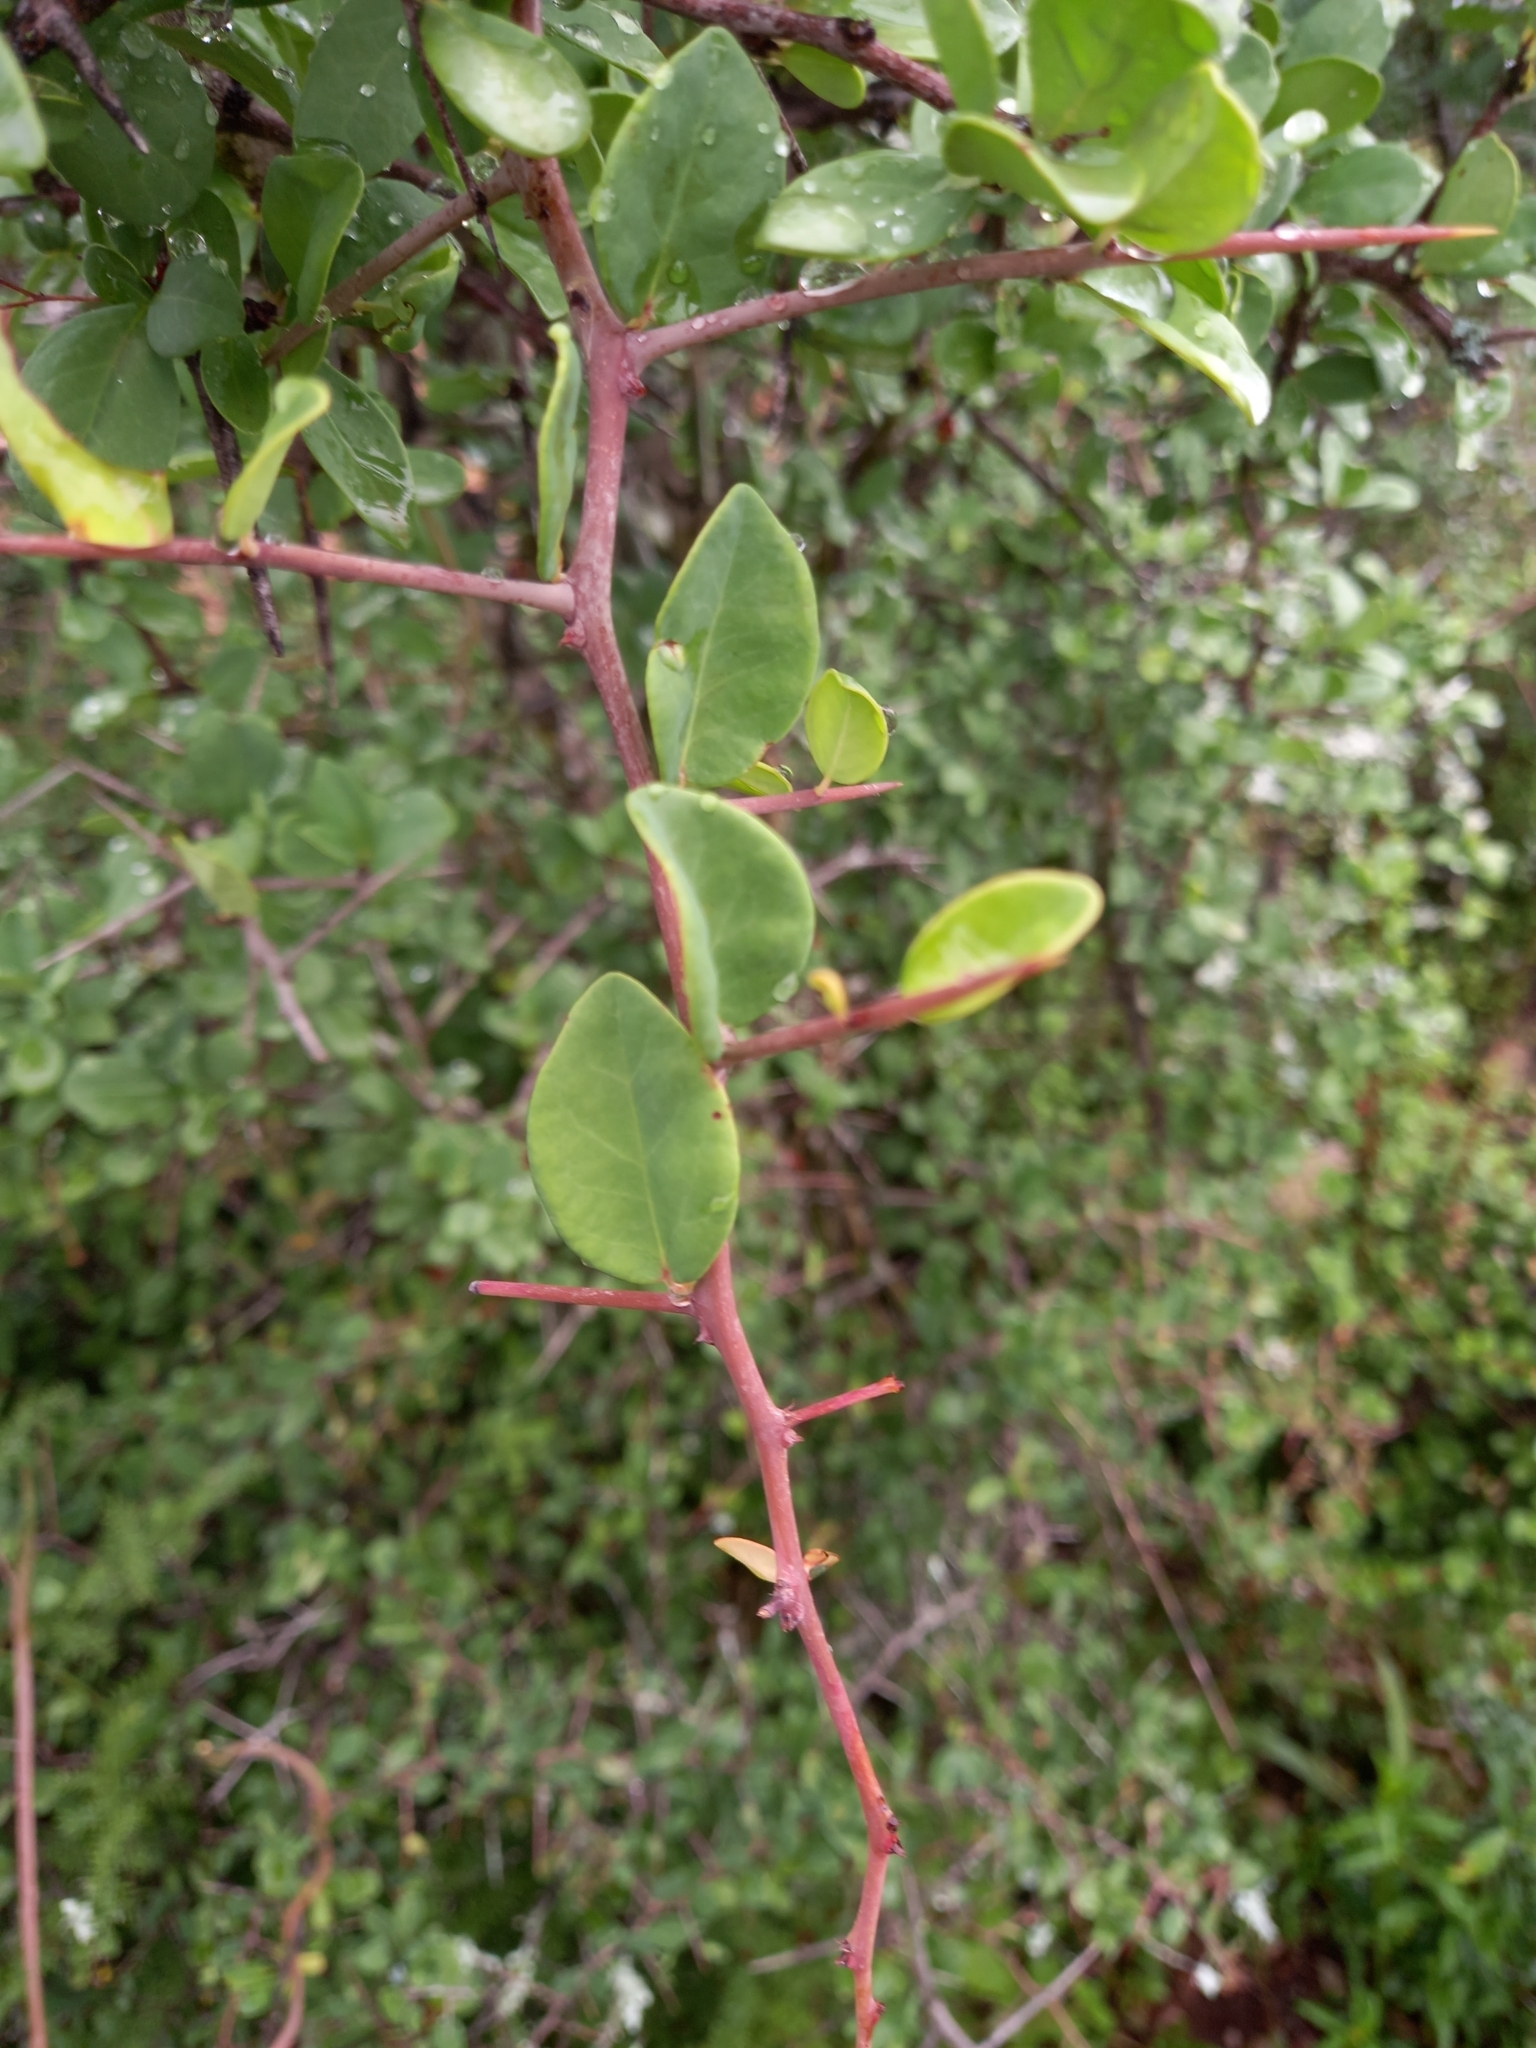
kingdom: Plantae
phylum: Tracheophyta
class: Magnoliopsida
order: Celastrales
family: Celastraceae
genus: Putterlickia
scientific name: Putterlickia pyracantha
